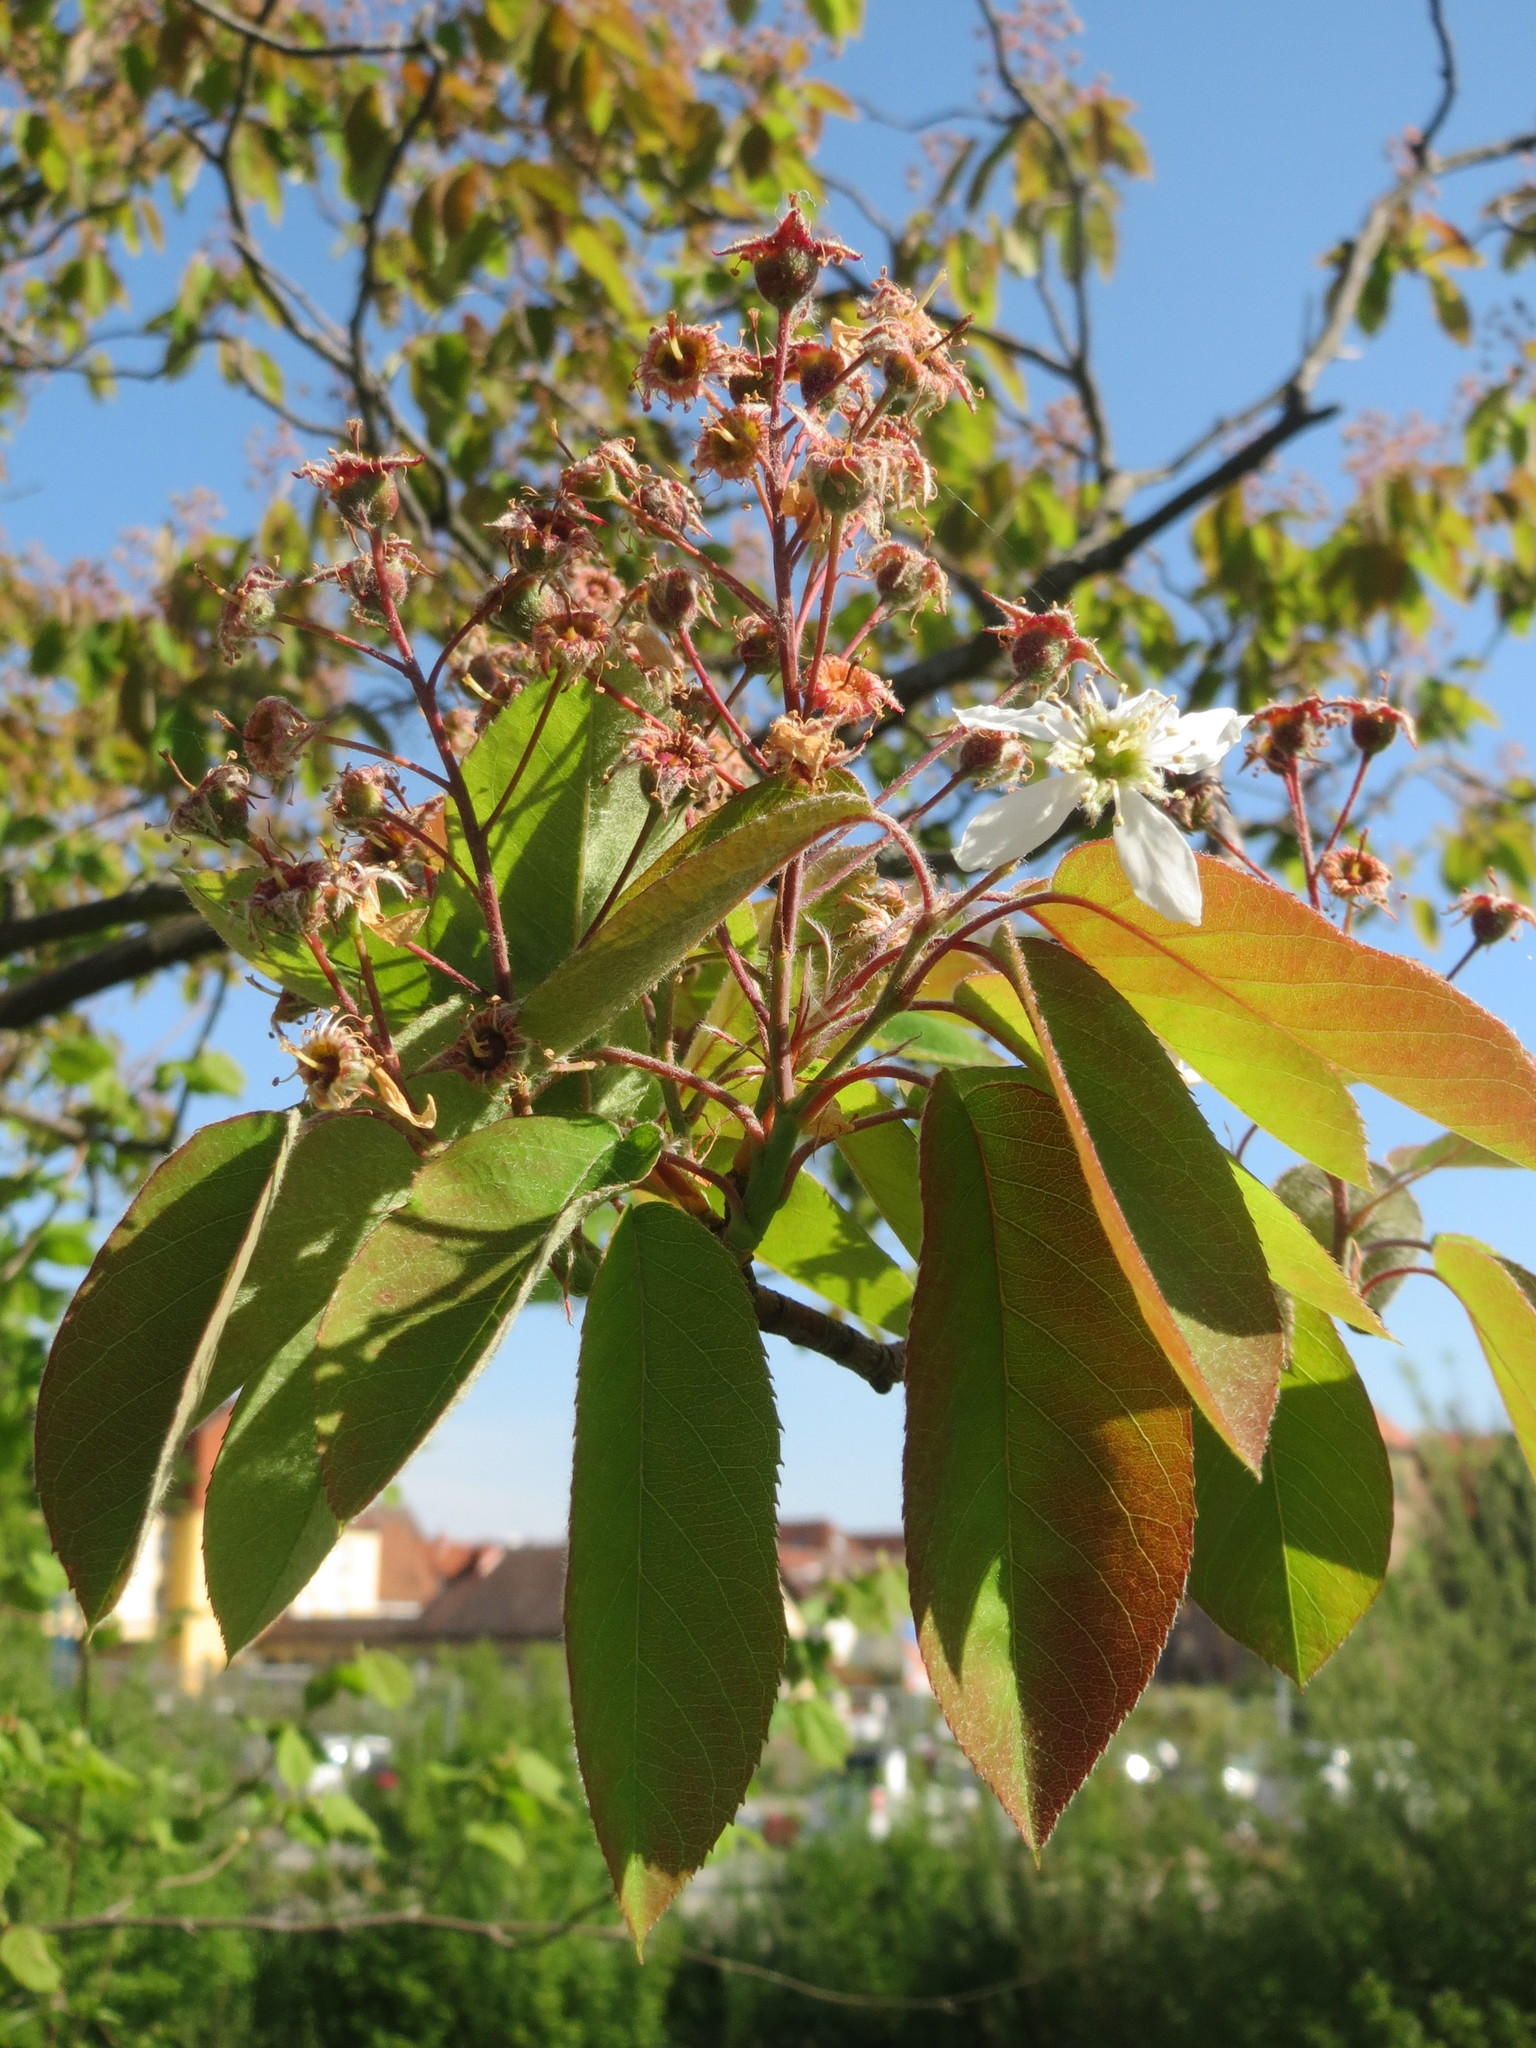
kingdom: Plantae
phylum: Tracheophyta
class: Magnoliopsida
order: Rosales
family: Rosaceae
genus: Amelanchier
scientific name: Amelanchier lamarckii
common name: Juneberry
